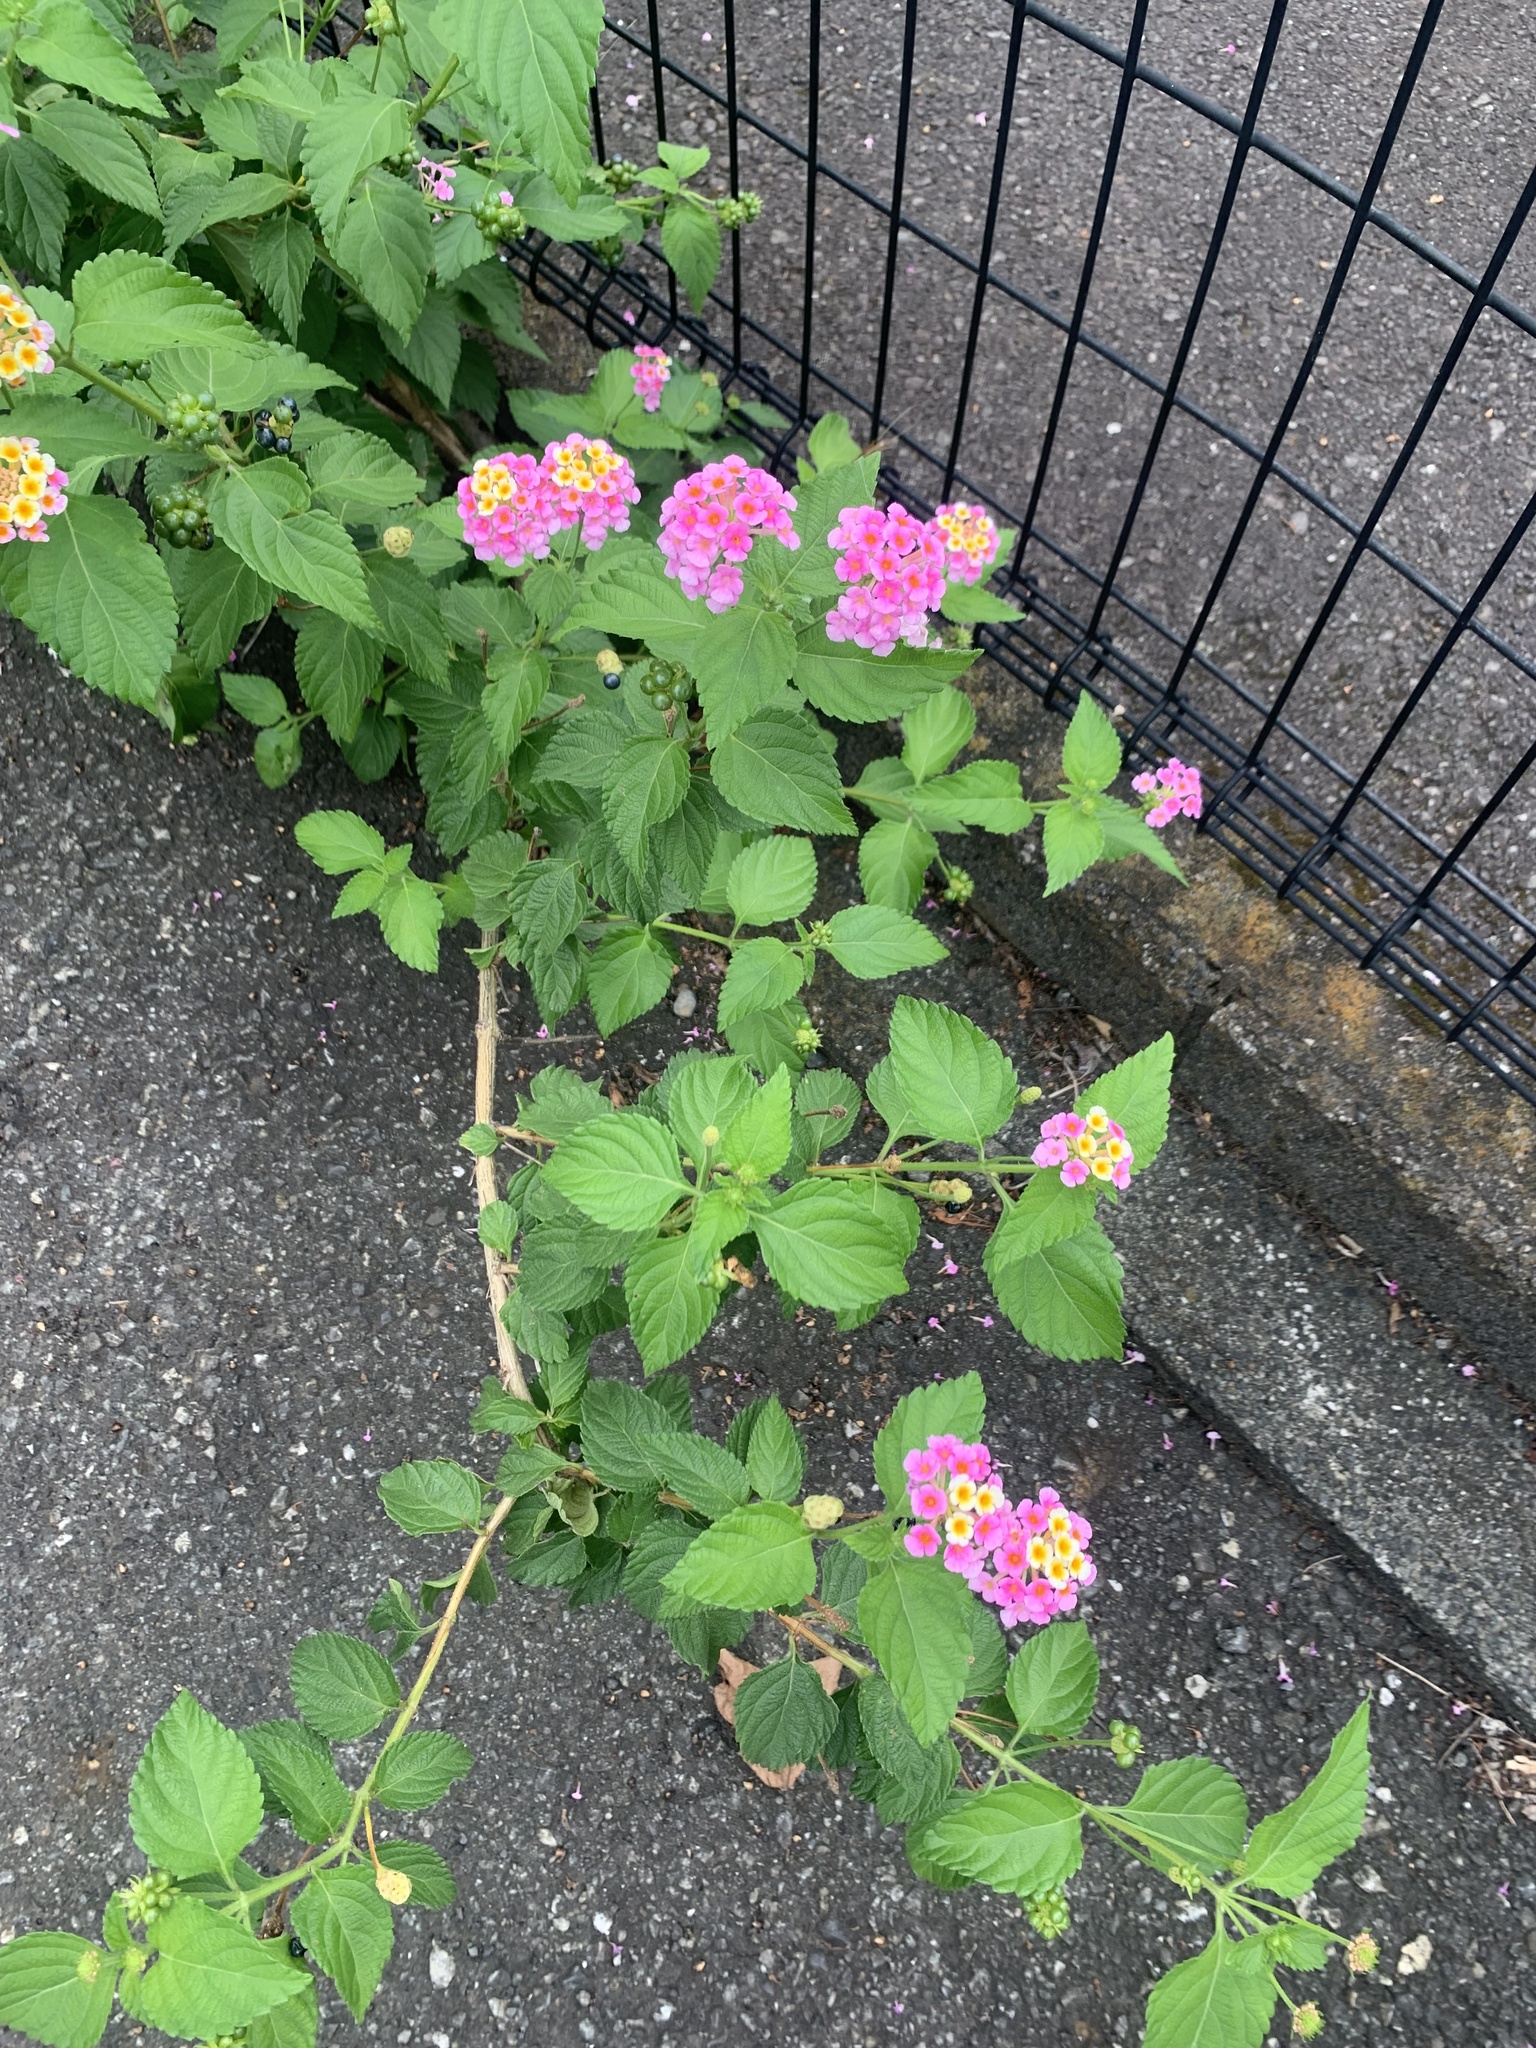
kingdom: Plantae
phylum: Tracheophyta
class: Magnoliopsida
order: Lamiales
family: Verbenaceae
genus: Lantana
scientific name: Lantana camara
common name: Lantana
